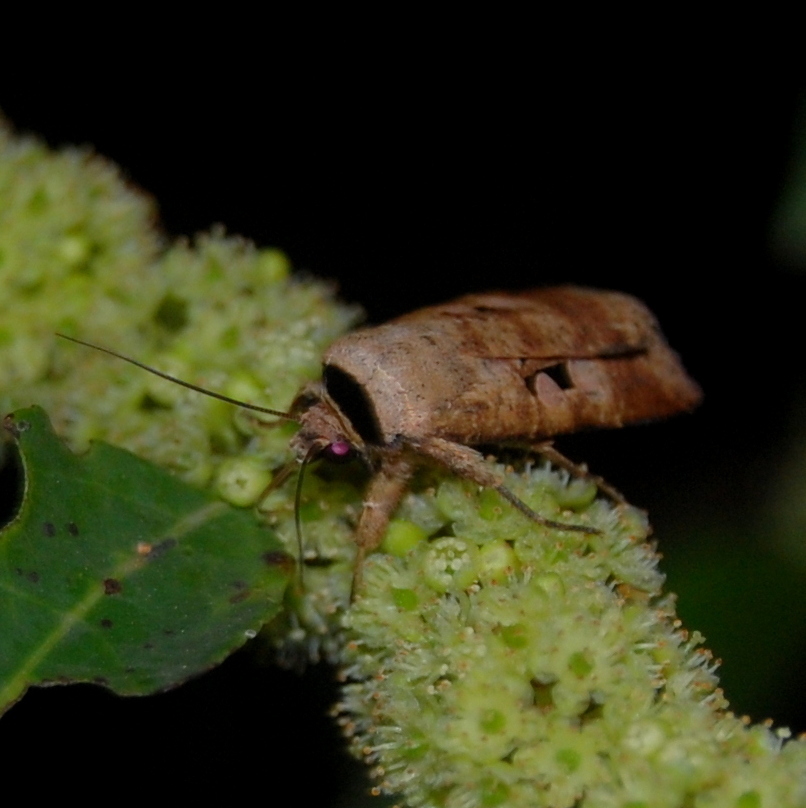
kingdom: Animalia
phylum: Arthropoda
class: Insecta
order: Lepidoptera
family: Noctuidae
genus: Praina
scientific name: Praina
